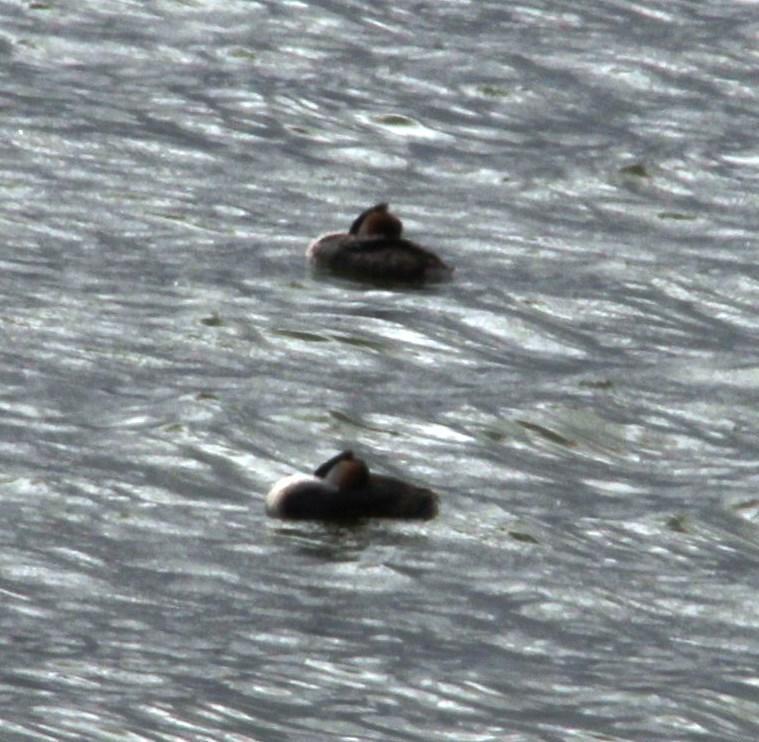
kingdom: Animalia
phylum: Chordata
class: Aves
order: Podicipediformes
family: Podicipedidae
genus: Podiceps
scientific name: Podiceps cristatus
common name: Great crested grebe
